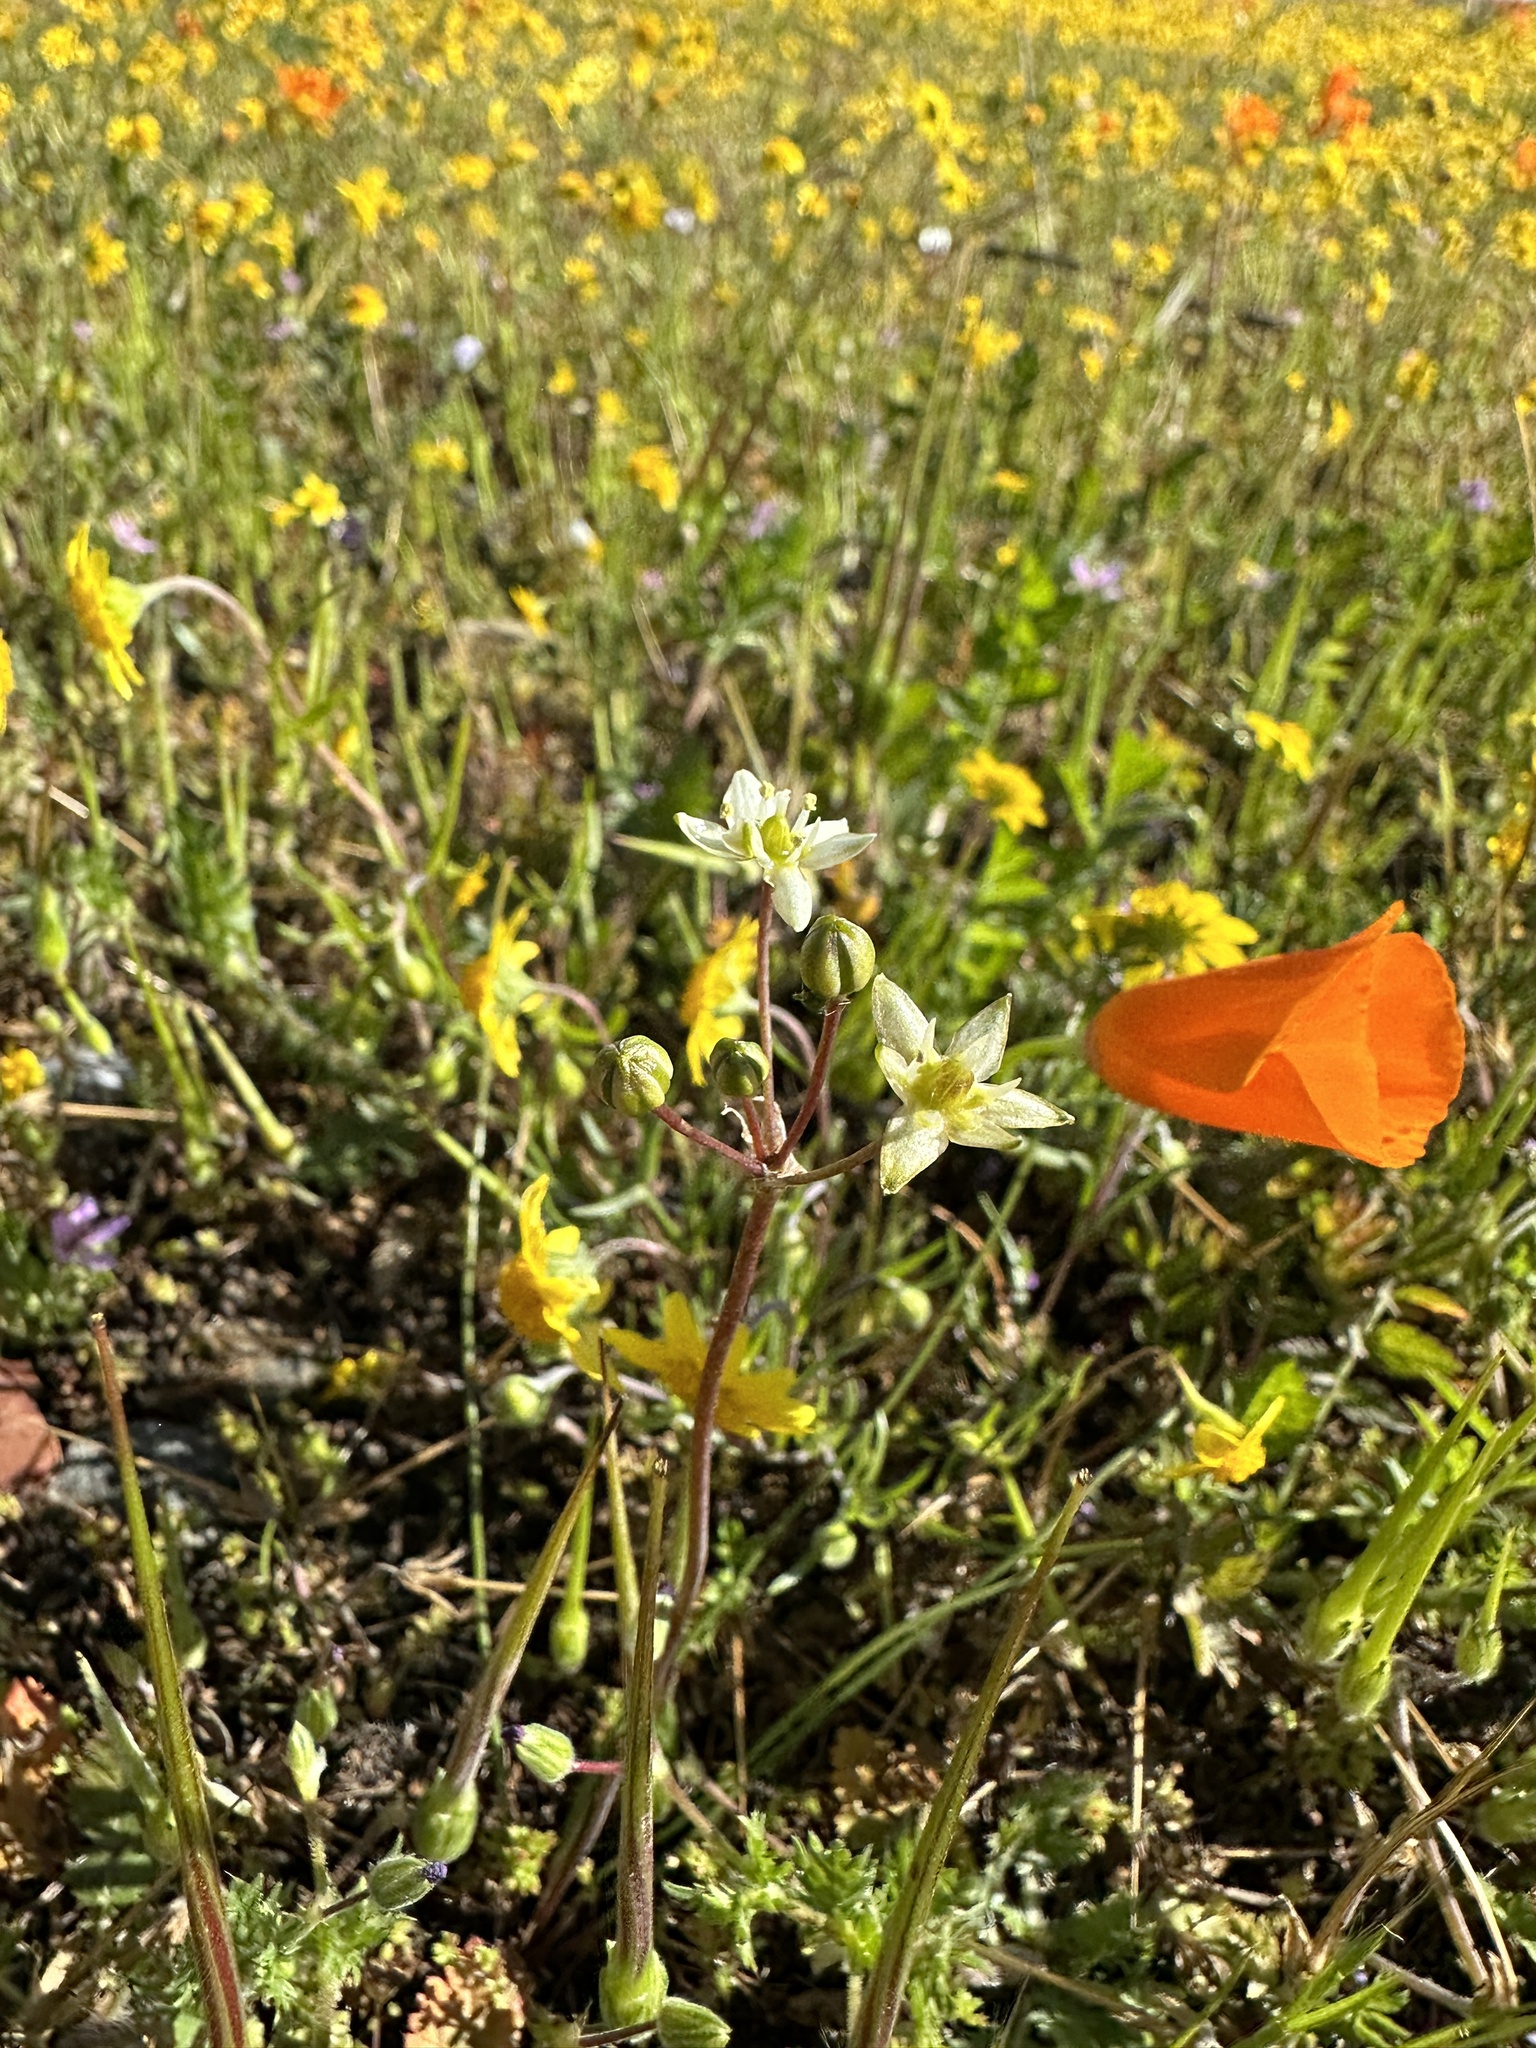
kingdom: Plantae
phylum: Tracheophyta
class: Liliopsida
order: Asparagales
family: Asparagaceae
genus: Muilla
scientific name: Muilla maritima
